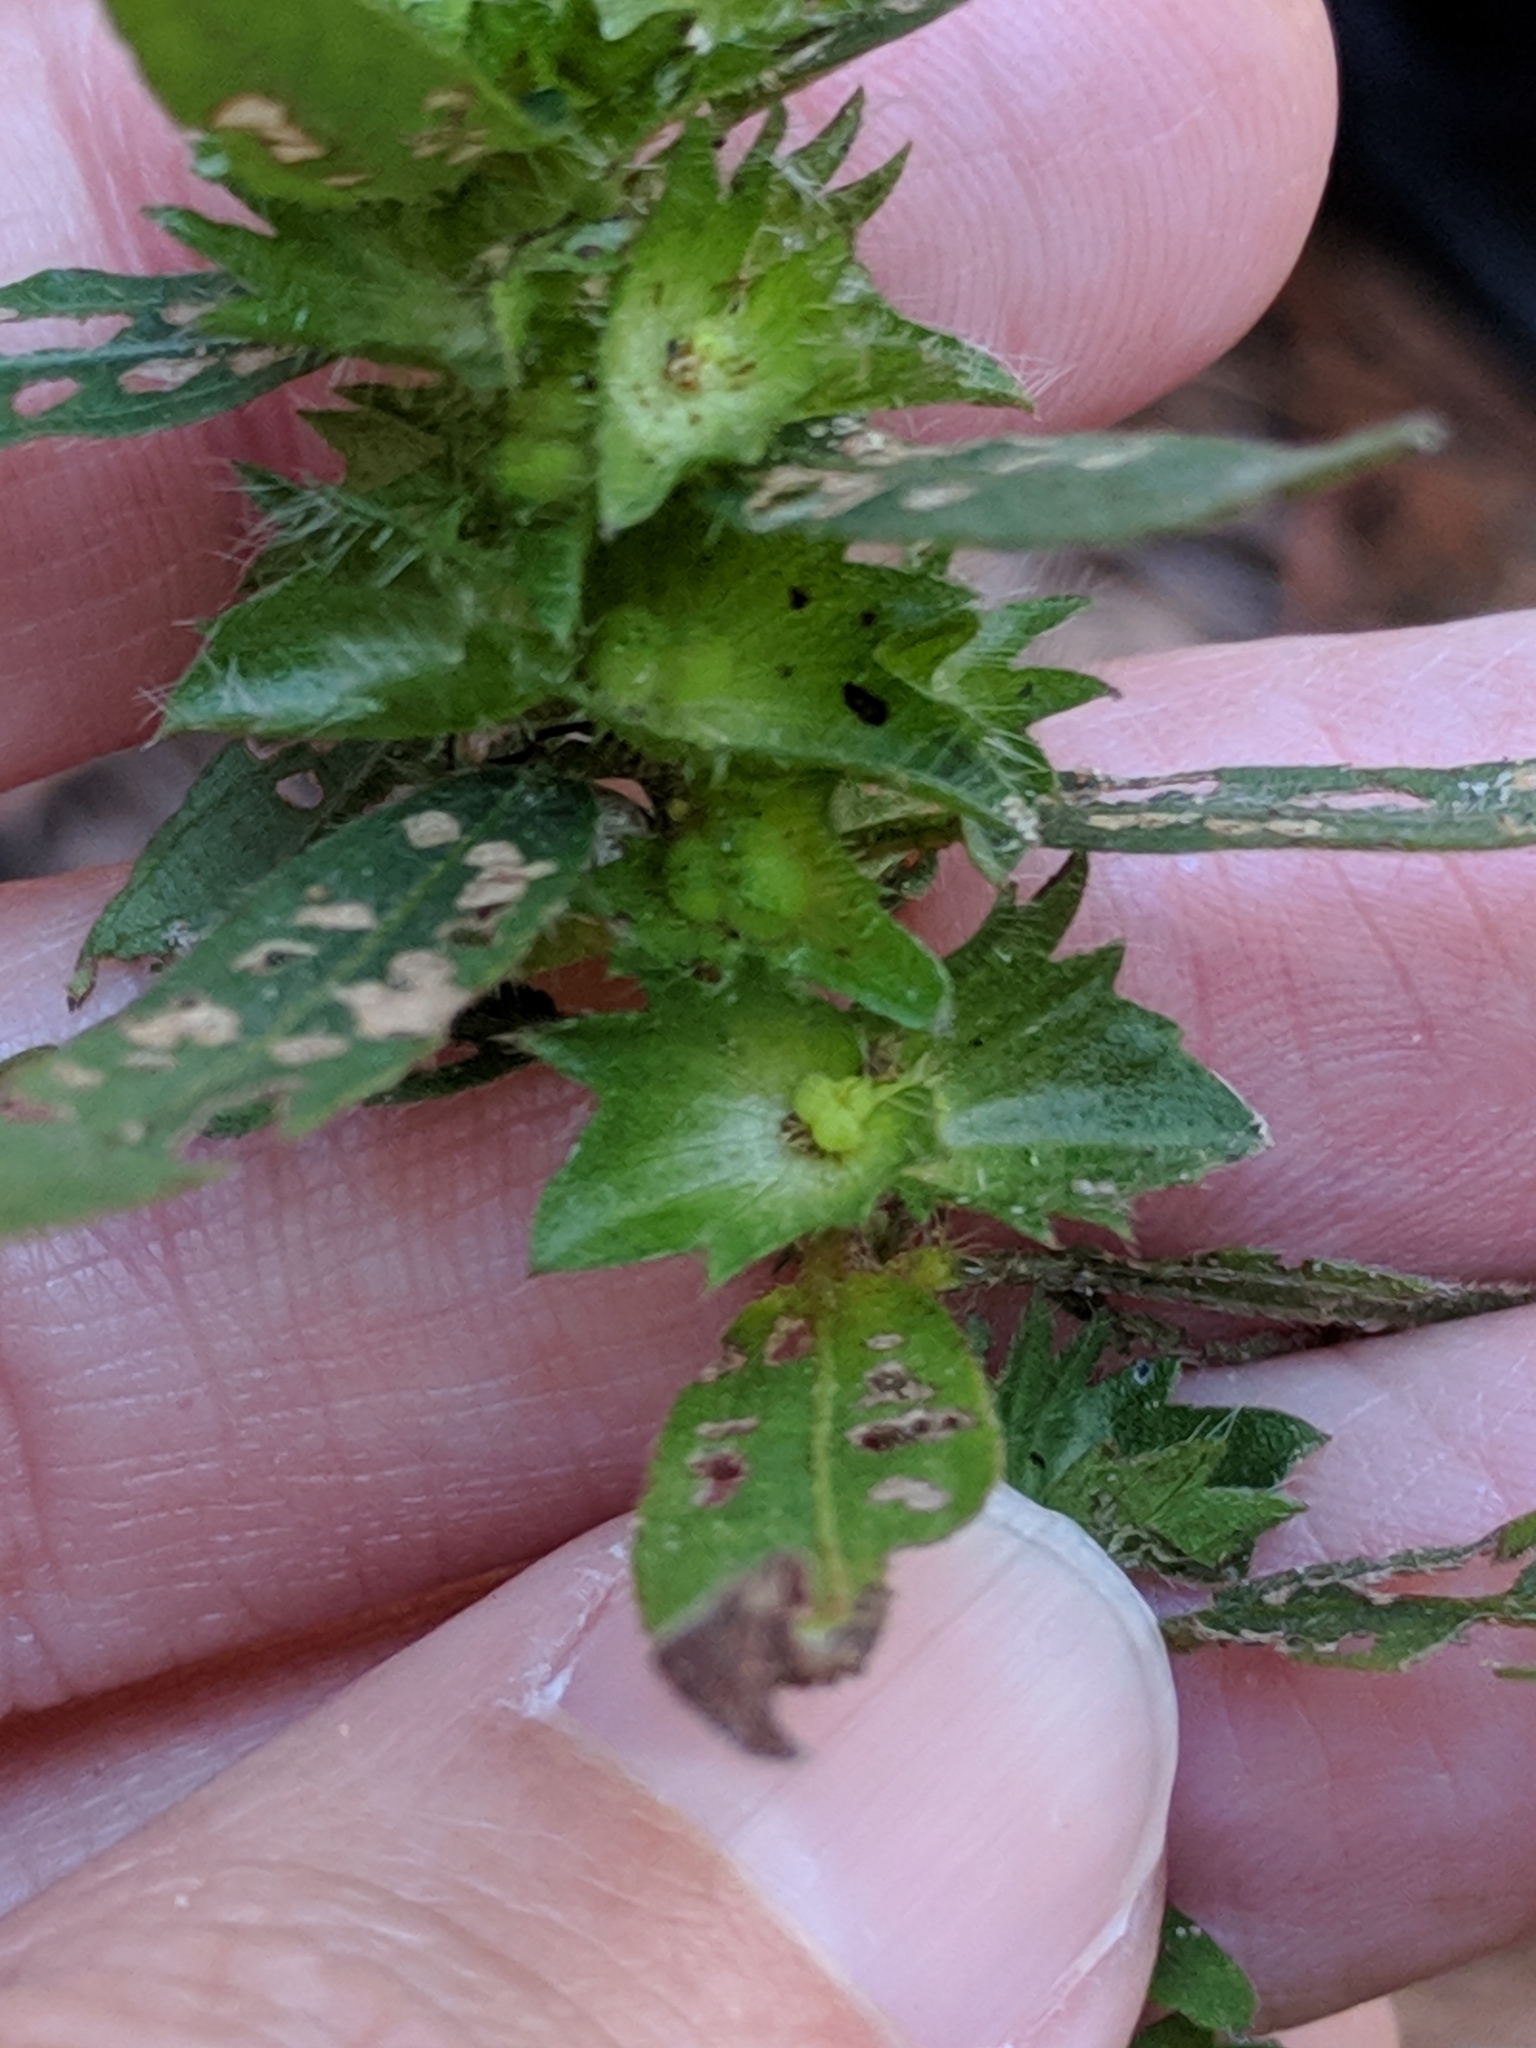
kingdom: Plantae
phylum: Tracheophyta
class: Magnoliopsida
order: Malpighiales
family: Euphorbiaceae
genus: Acalypha
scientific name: Acalypha gracilens
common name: Slender three-seeded mercury
